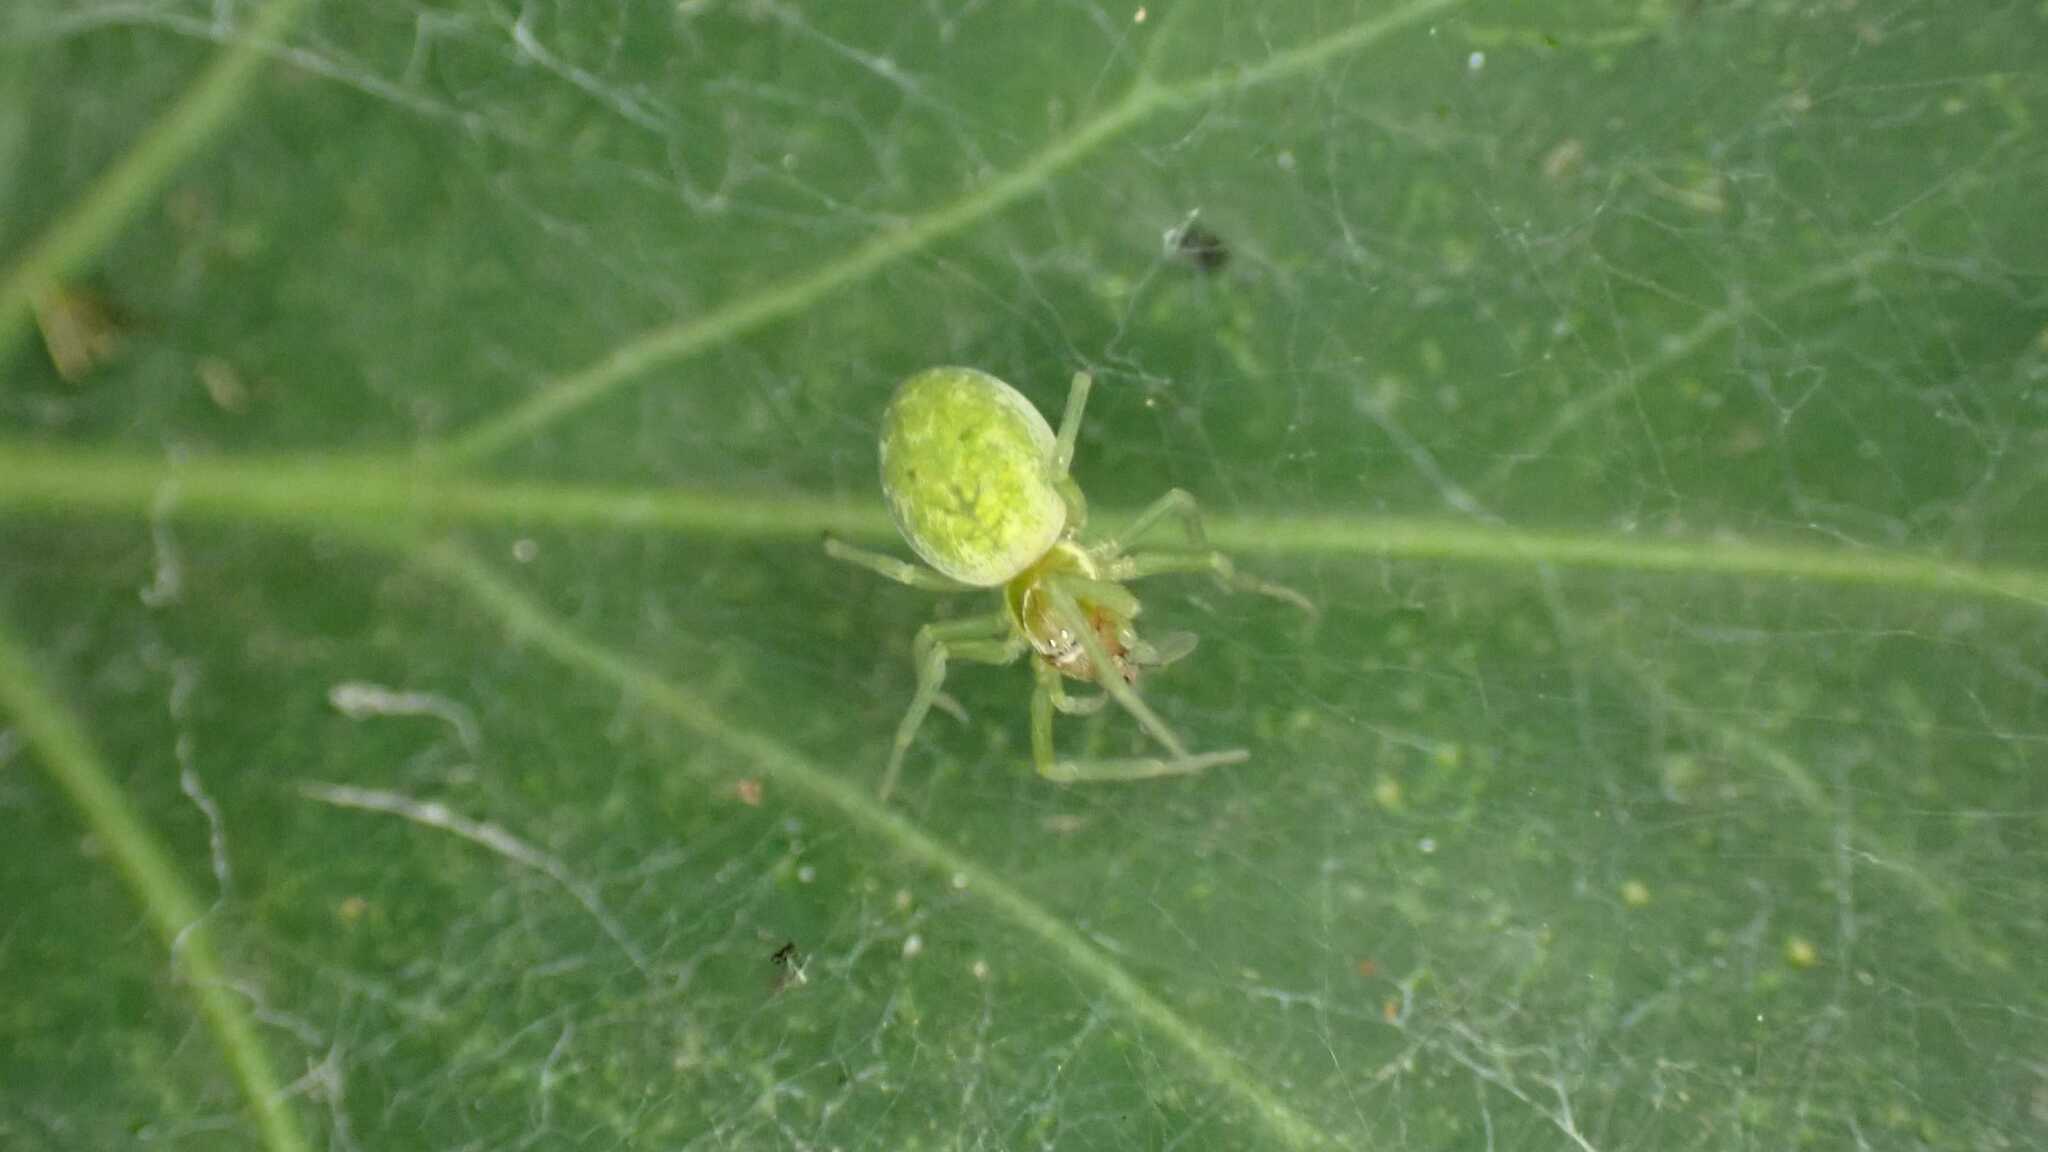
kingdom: Animalia
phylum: Arthropoda
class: Arachnida
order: Araneae
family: Dictynidae
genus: Nigma
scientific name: Nigma walckenaeri
